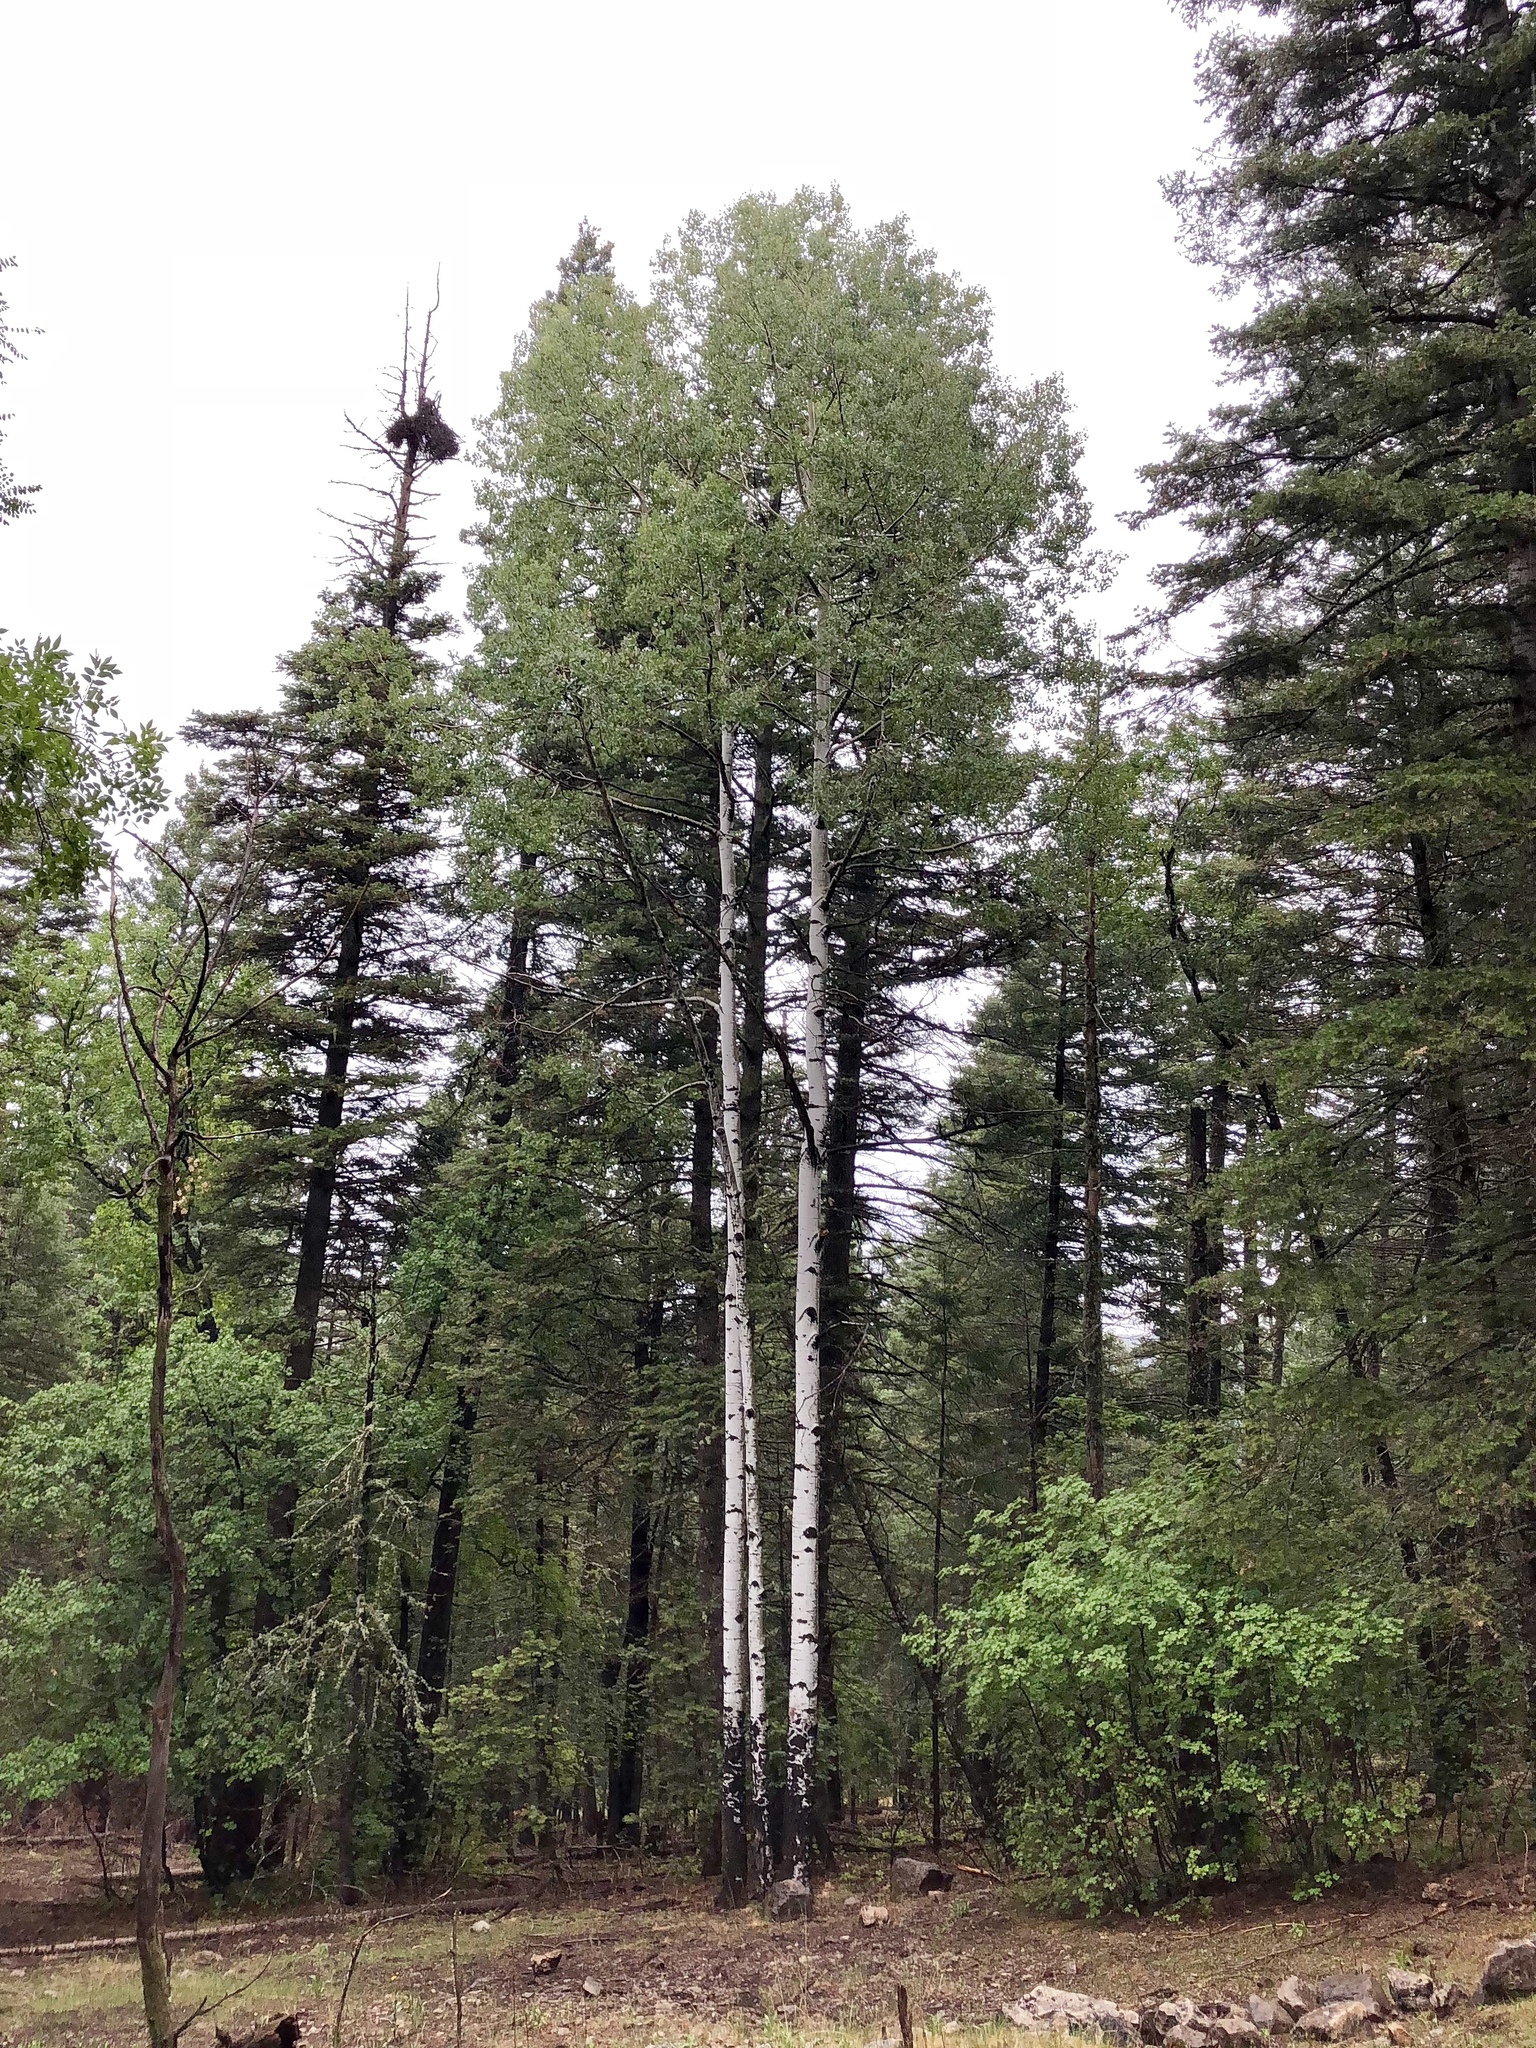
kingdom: Plantae
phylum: Tracheophyta
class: Magnoliopsida
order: Malpighiales
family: Salicaceae
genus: Populus
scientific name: Populus tremuloides
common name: Quaking aspen
